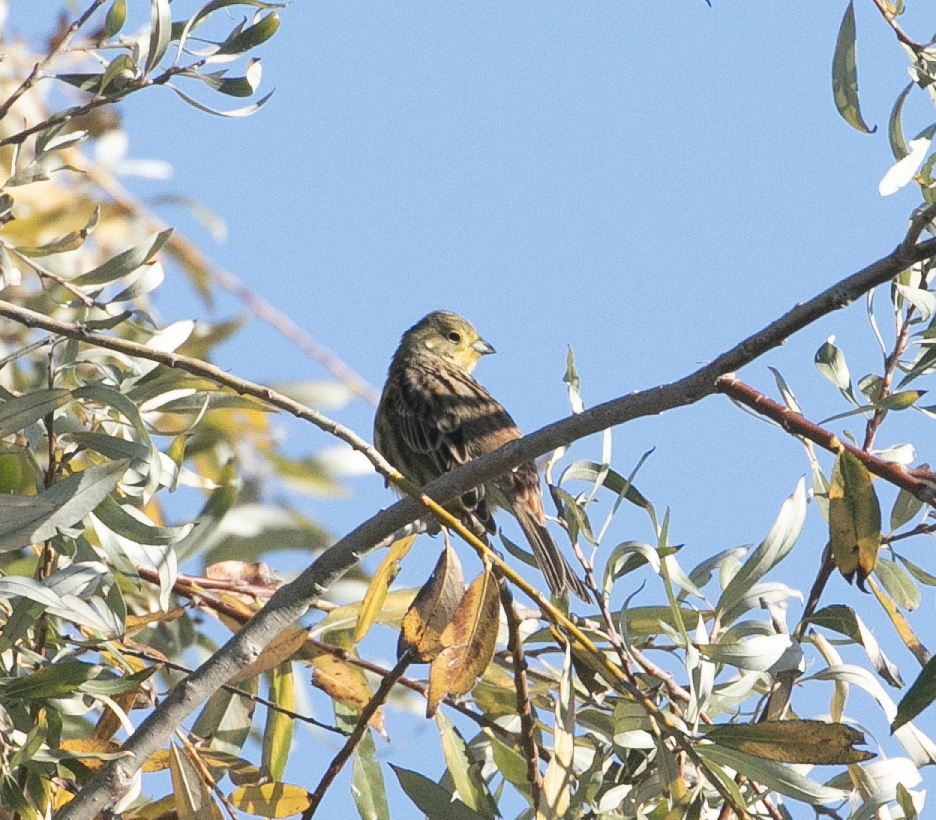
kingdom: Animalia
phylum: Chordata
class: Aves
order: Passeriformes
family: Emberizidae
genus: Emberiza
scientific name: Emberiza citrinella
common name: Yellowhammer
